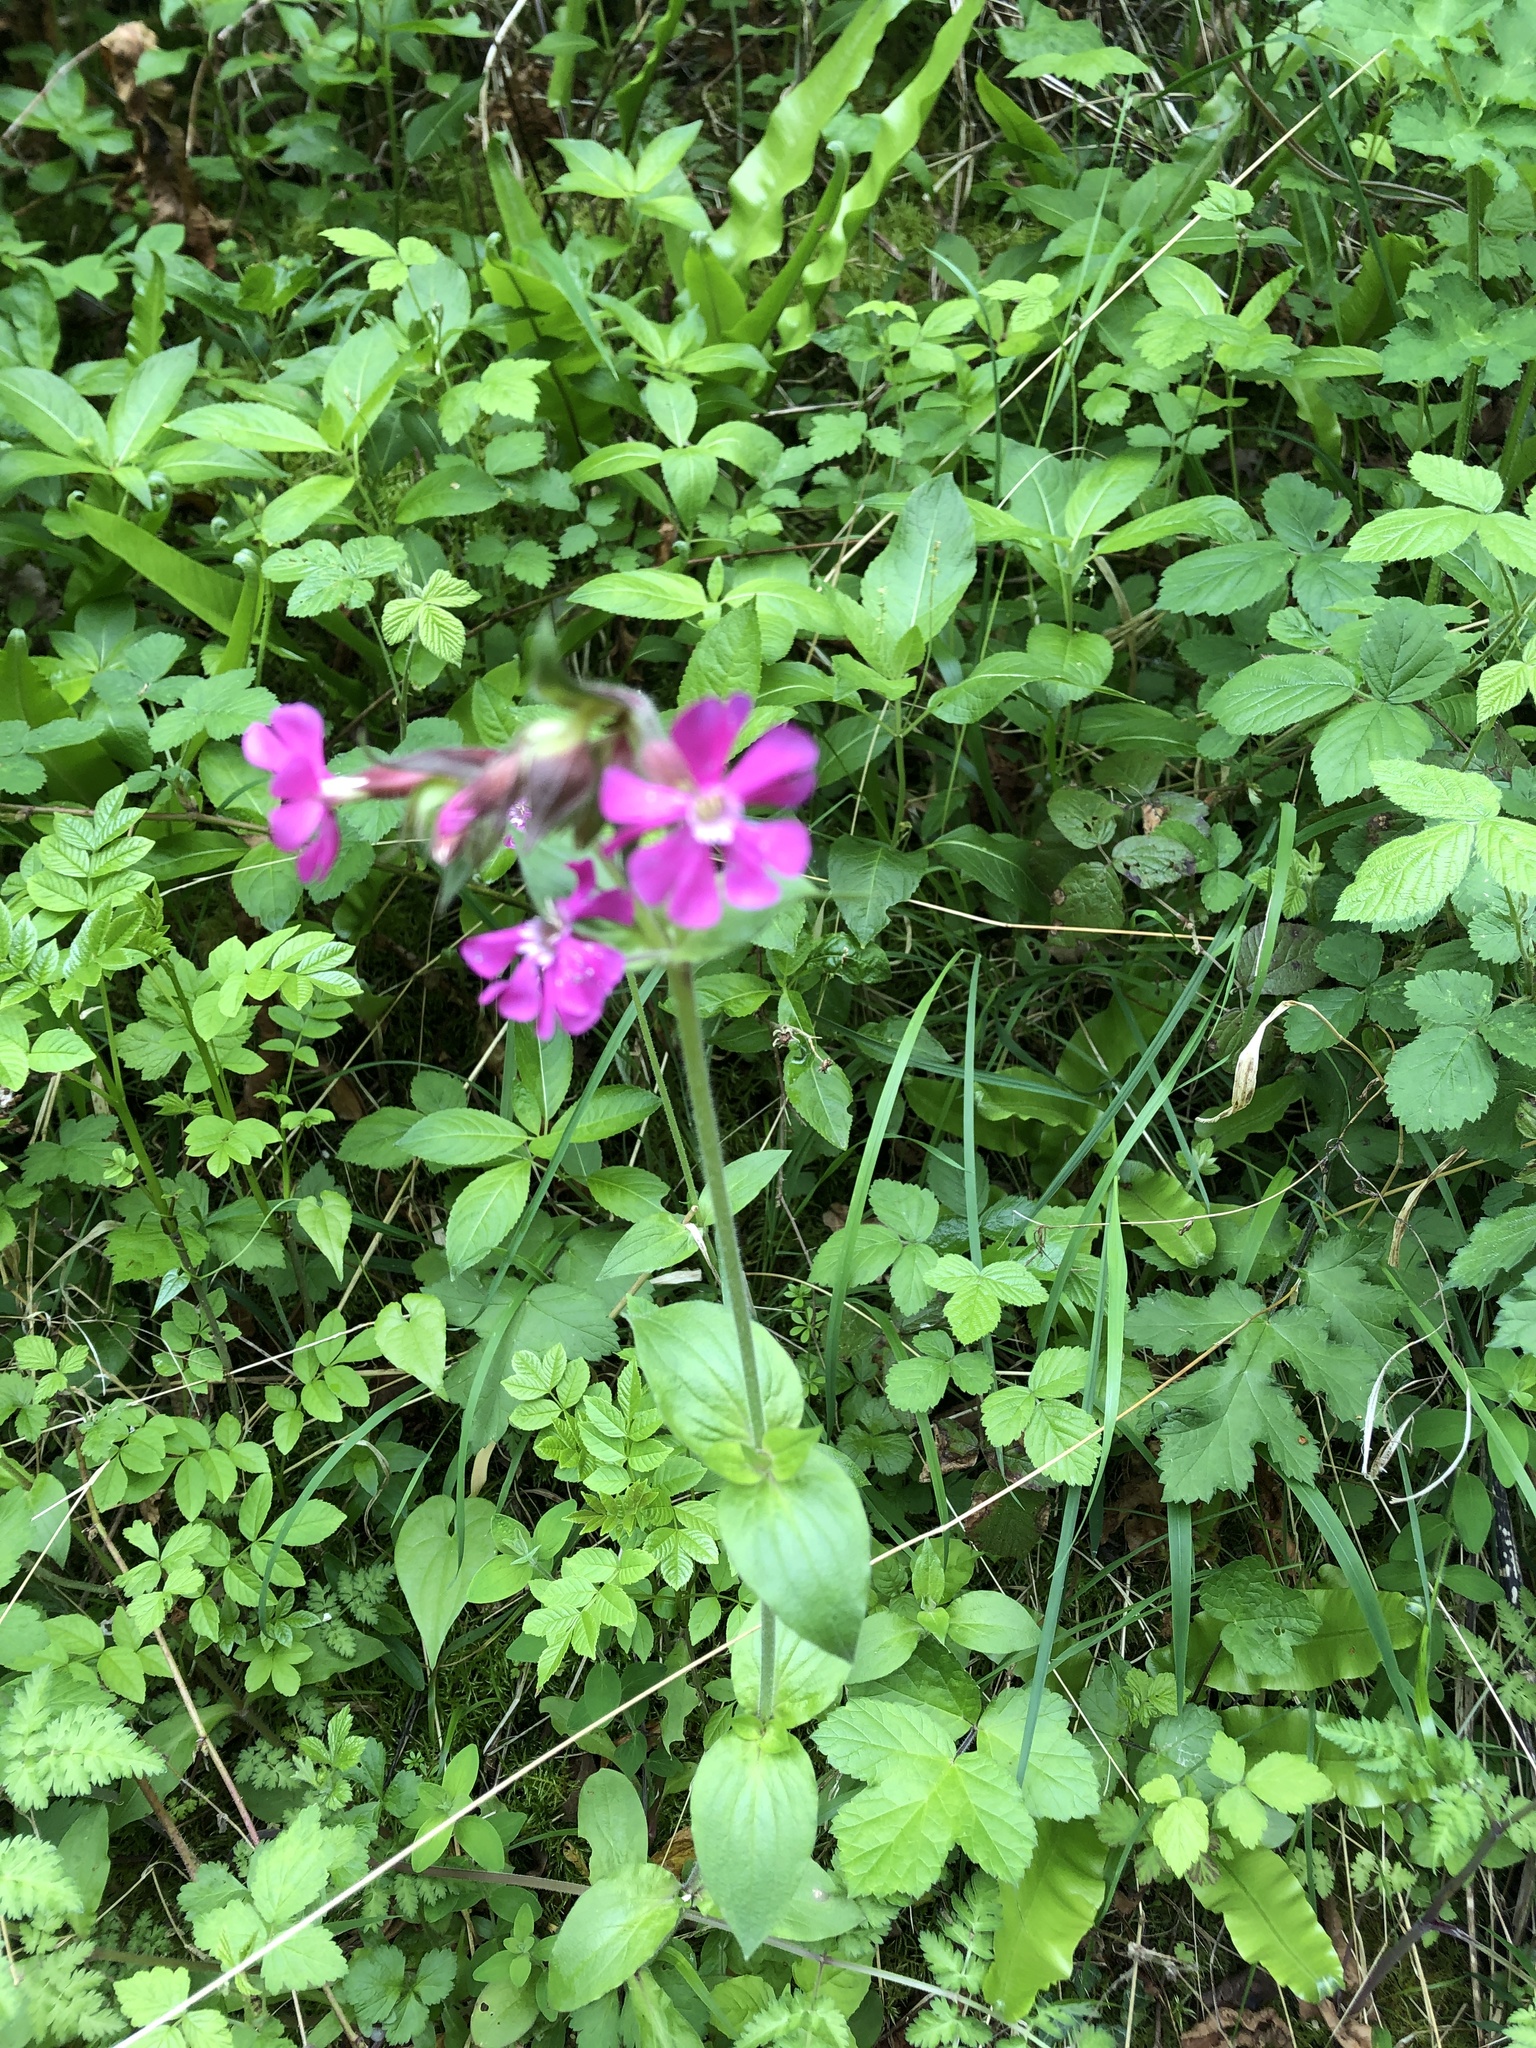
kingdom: Plantae
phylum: Tracheophyta
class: Magnoliopsida
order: Caryophyllales
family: Caryophyllaceae
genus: Silene
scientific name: Silene dioica
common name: Red campion
